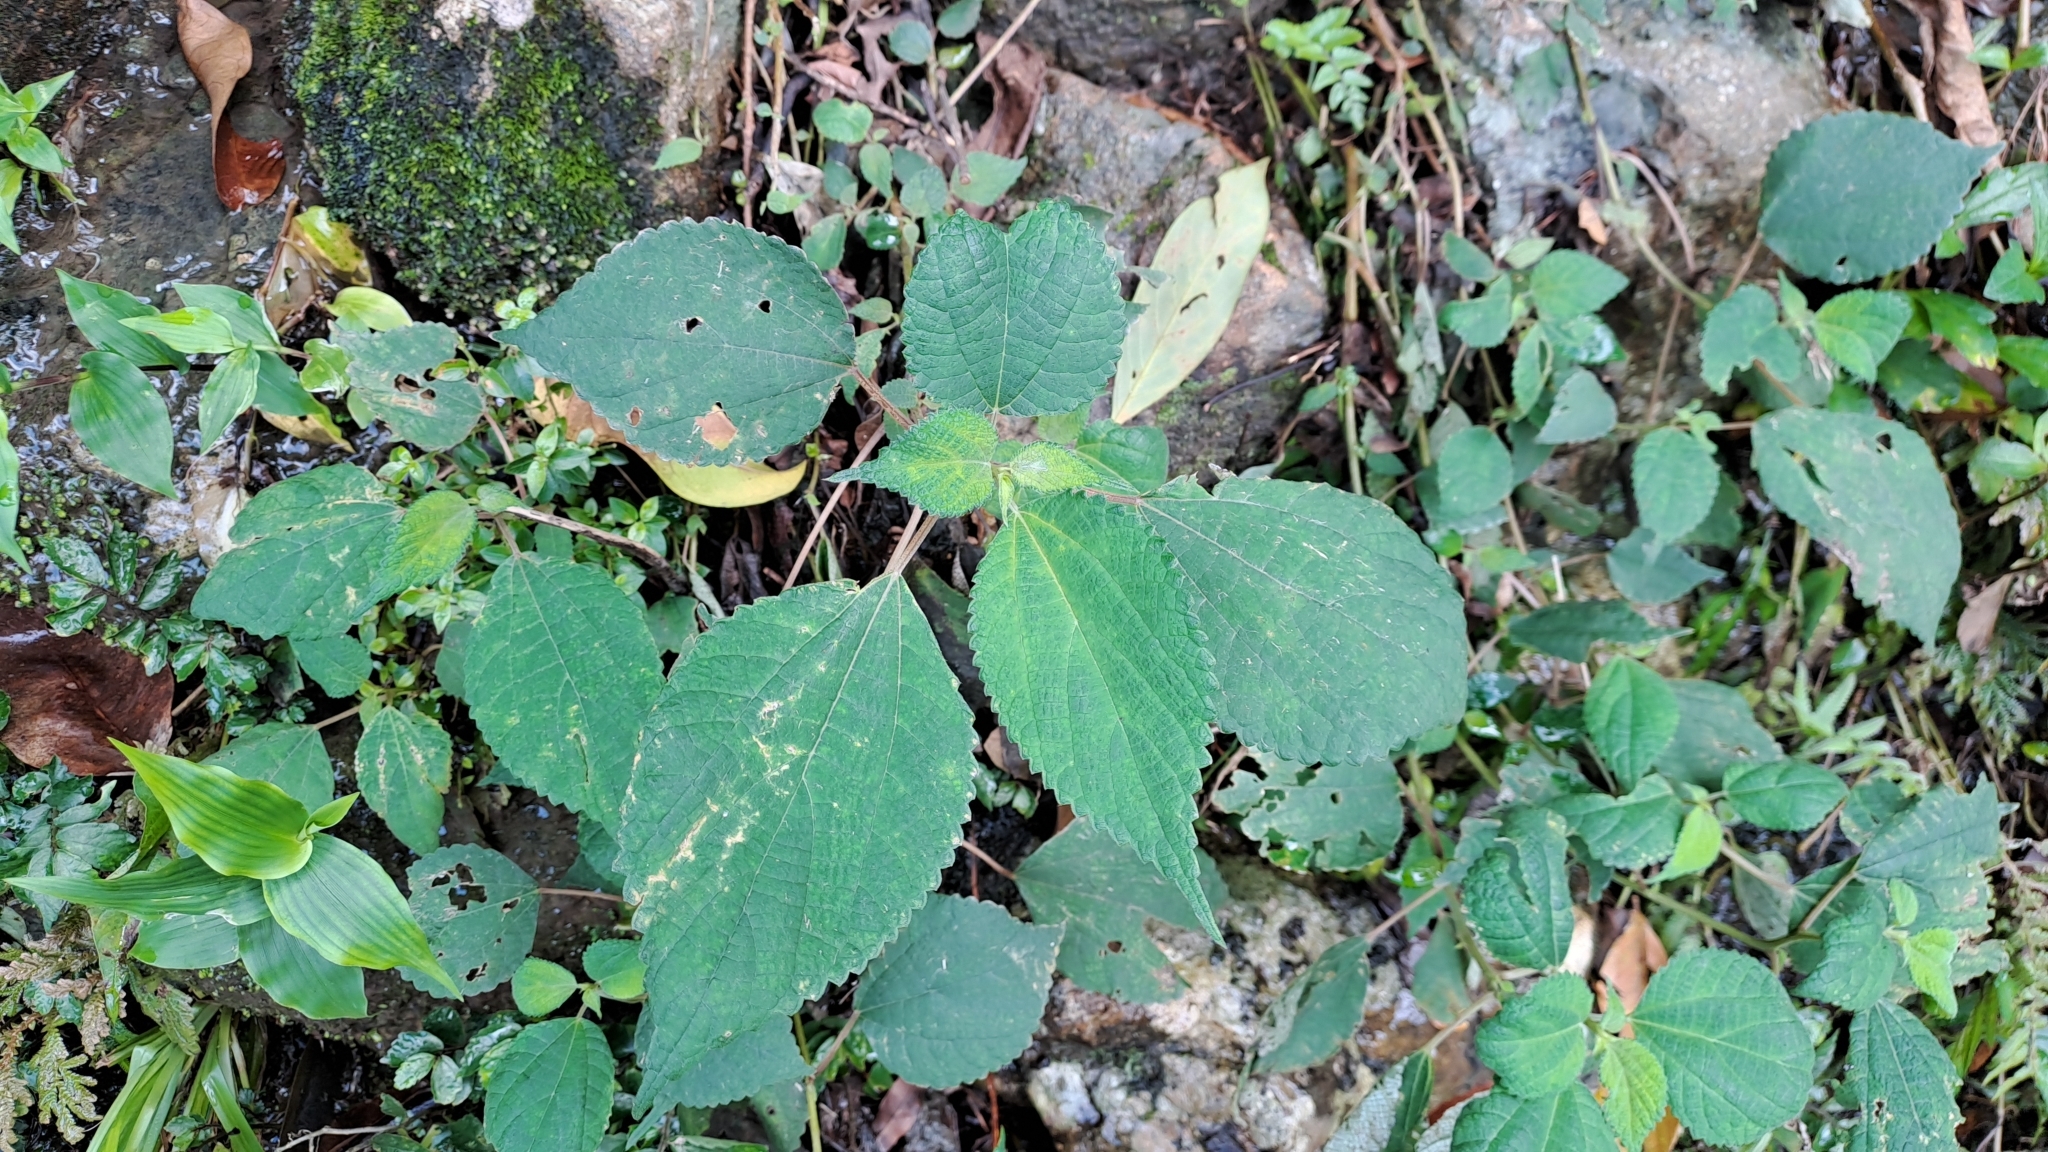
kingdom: Plantae
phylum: Tracheophyta
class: Magnoliopsida
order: Rosales
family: Urticaceae
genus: Boehmeria
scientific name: Boehmeria nivea
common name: Ramie chinese grass
